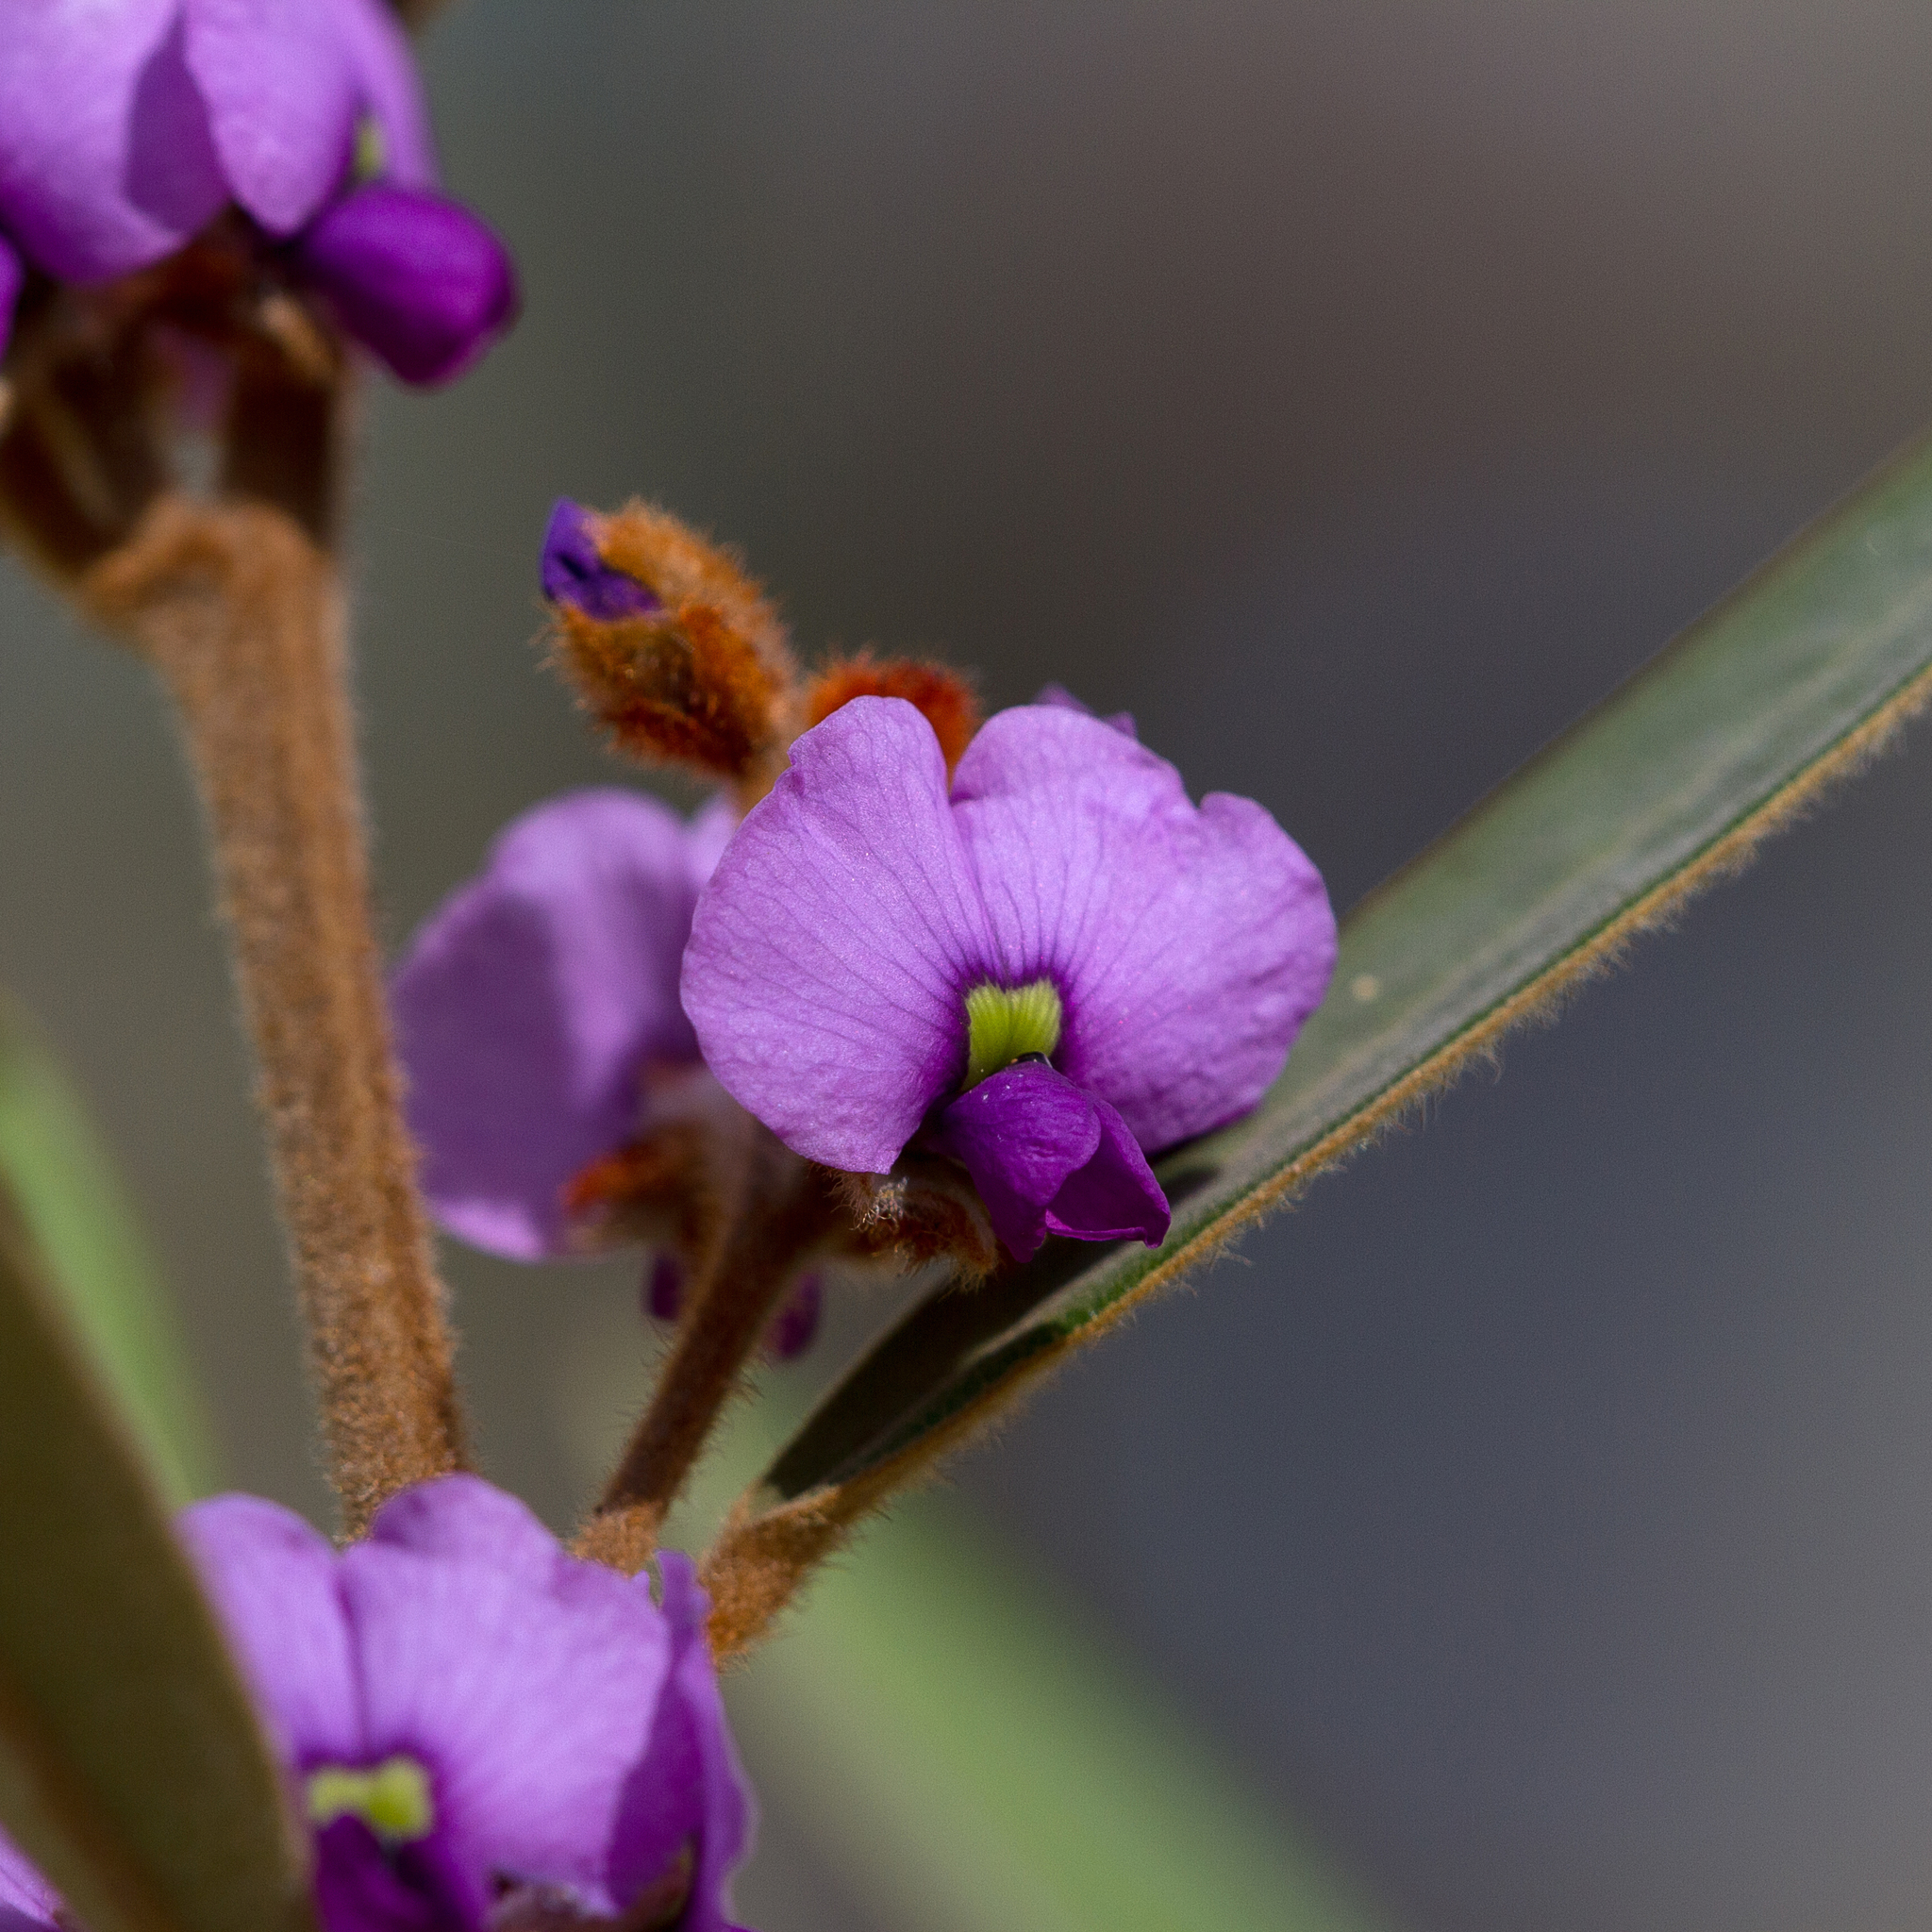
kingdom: Plantae
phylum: Tracheophyta
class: Magnoliopsida
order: Fabales
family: Fabaceae
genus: Hovea
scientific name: Hovea planifolia
